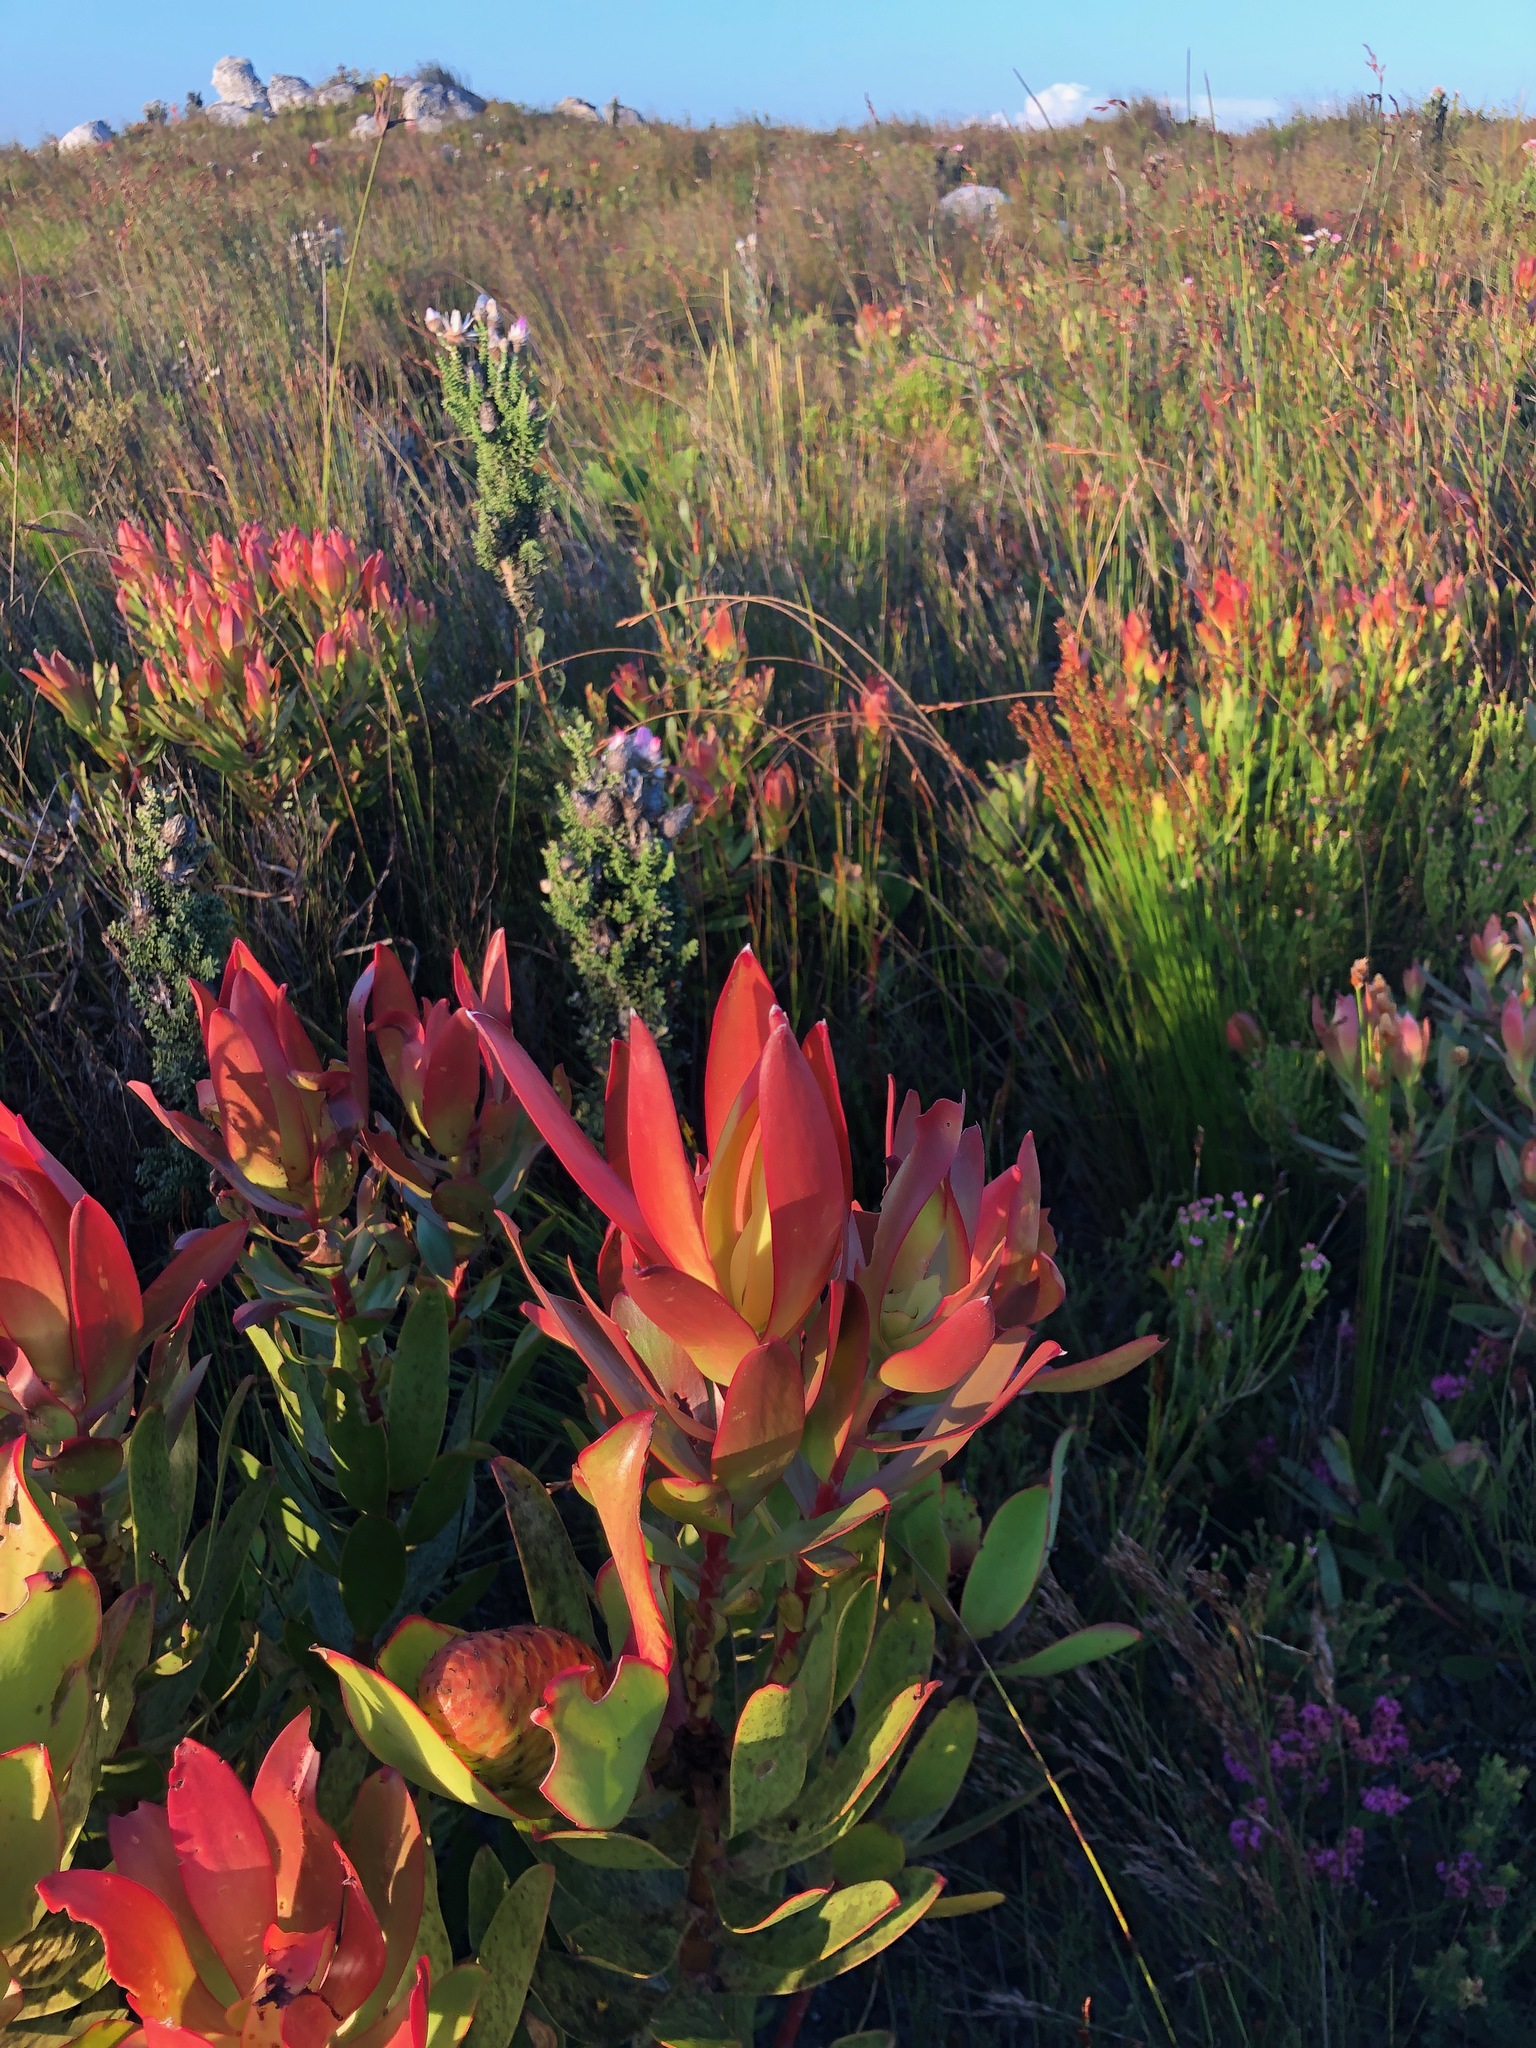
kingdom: Plantae
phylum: Tracheophyta
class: Magnoliopsida
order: Proteales
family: Proteaceae
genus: Leucadendron
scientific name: Leucadendron gandogeri
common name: Broad-leaf conebush
